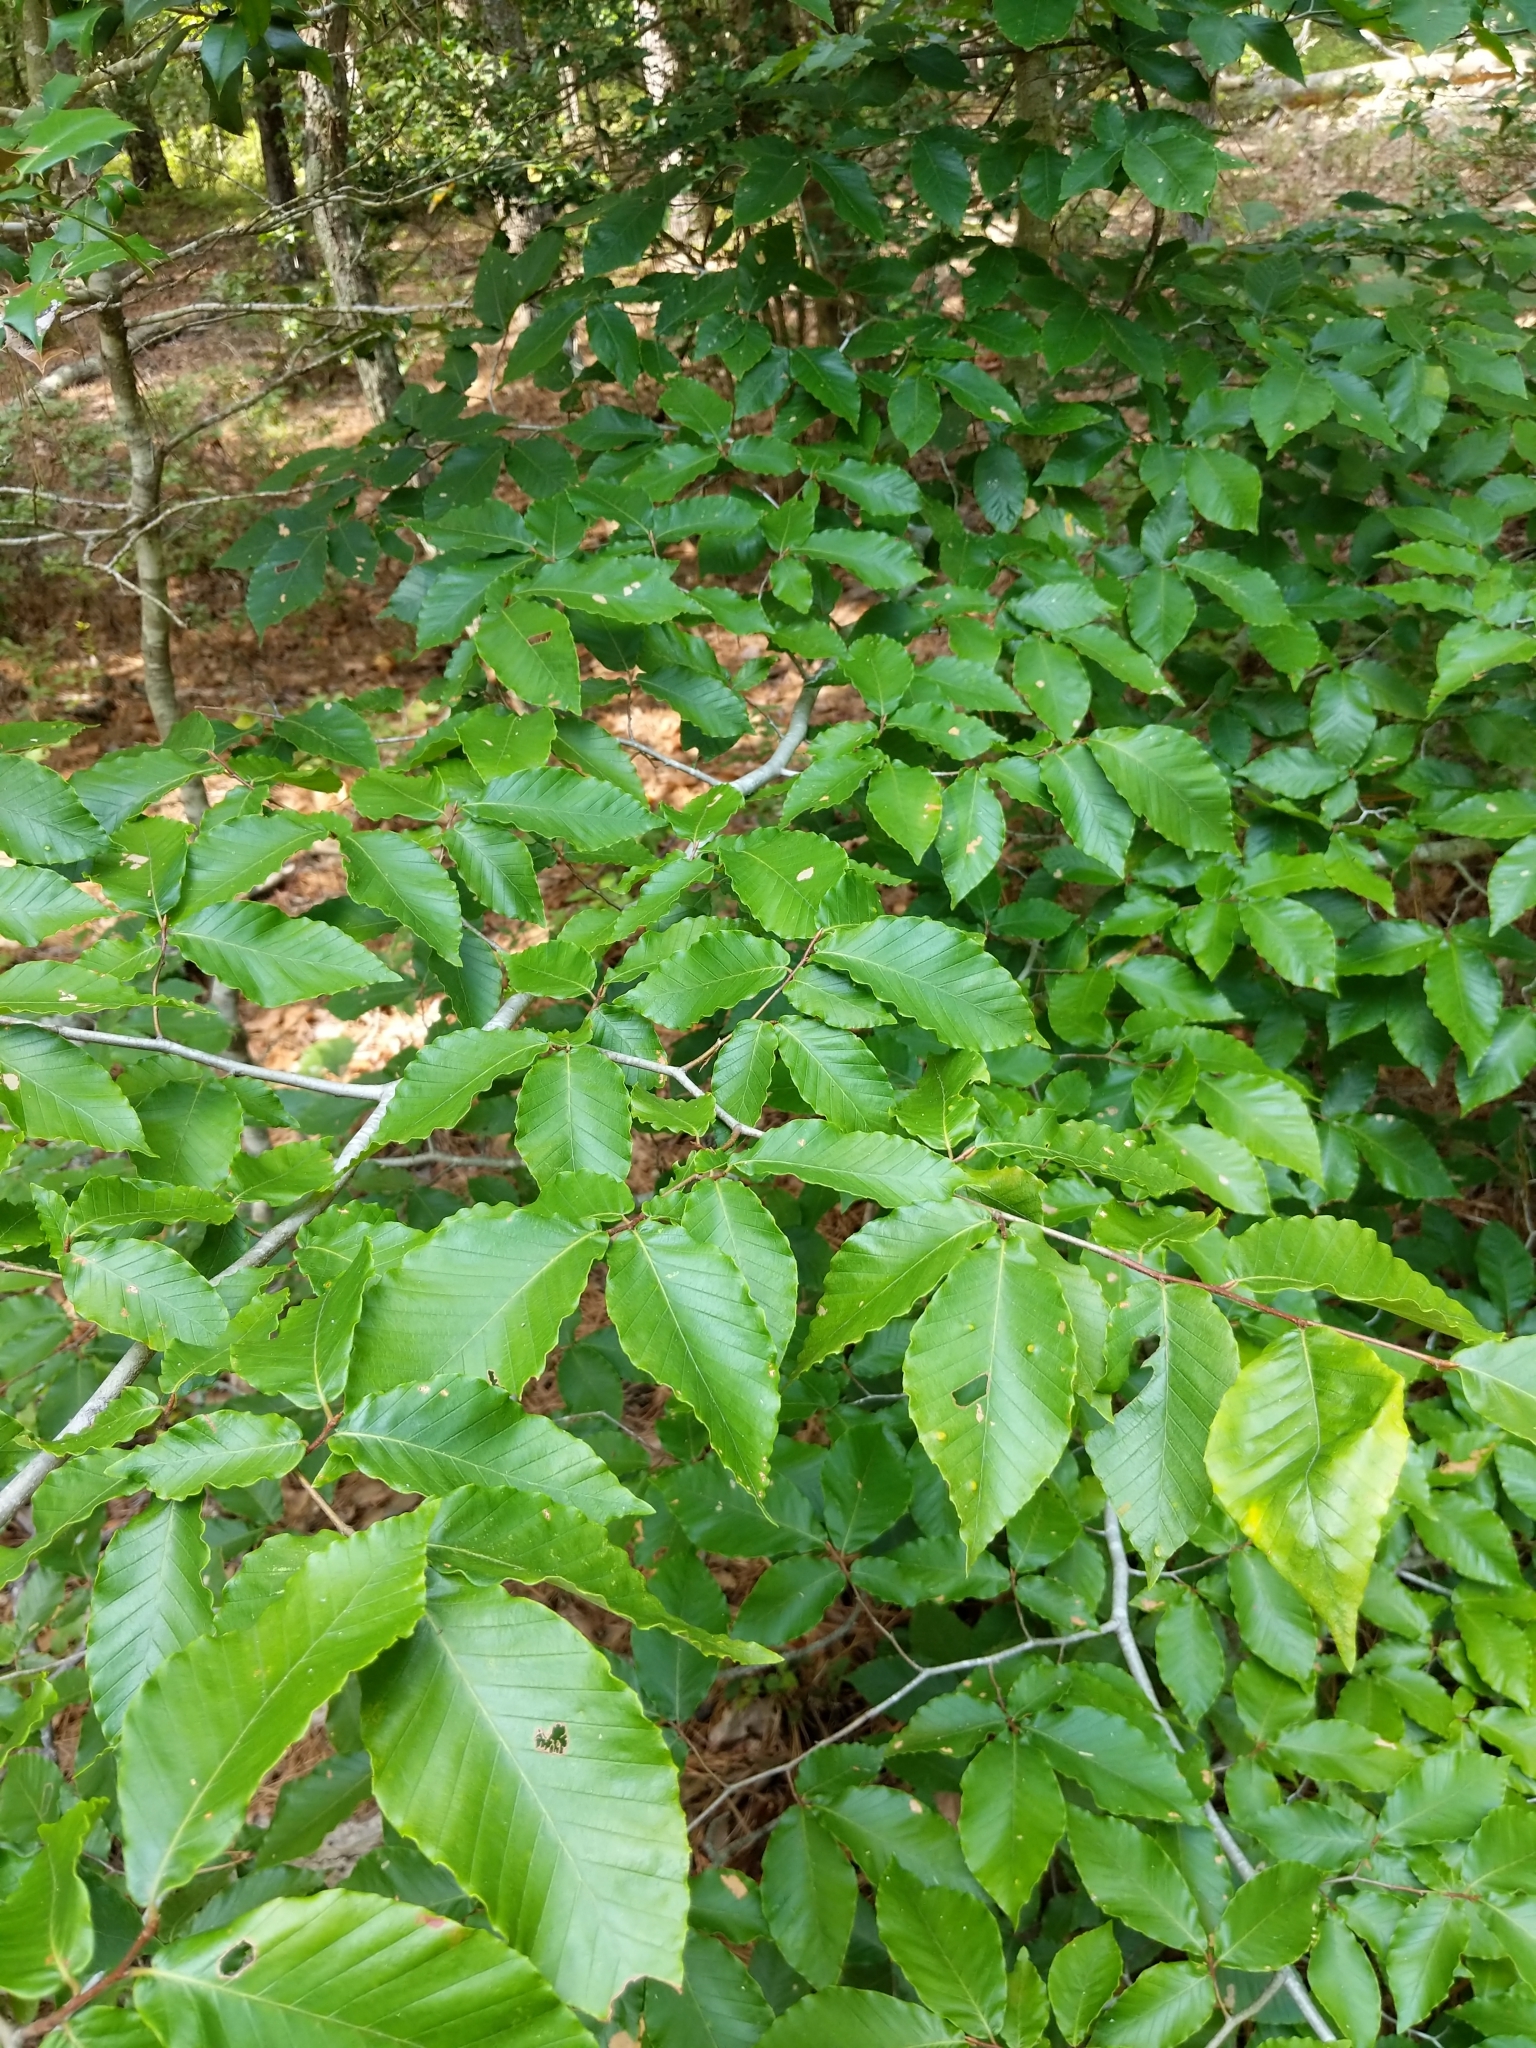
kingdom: Plantae
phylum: Tracheophyta
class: Magnoliopsida
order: Fagales
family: Fagaceae
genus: Fagus
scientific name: Fagus grandifolia
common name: American beech
